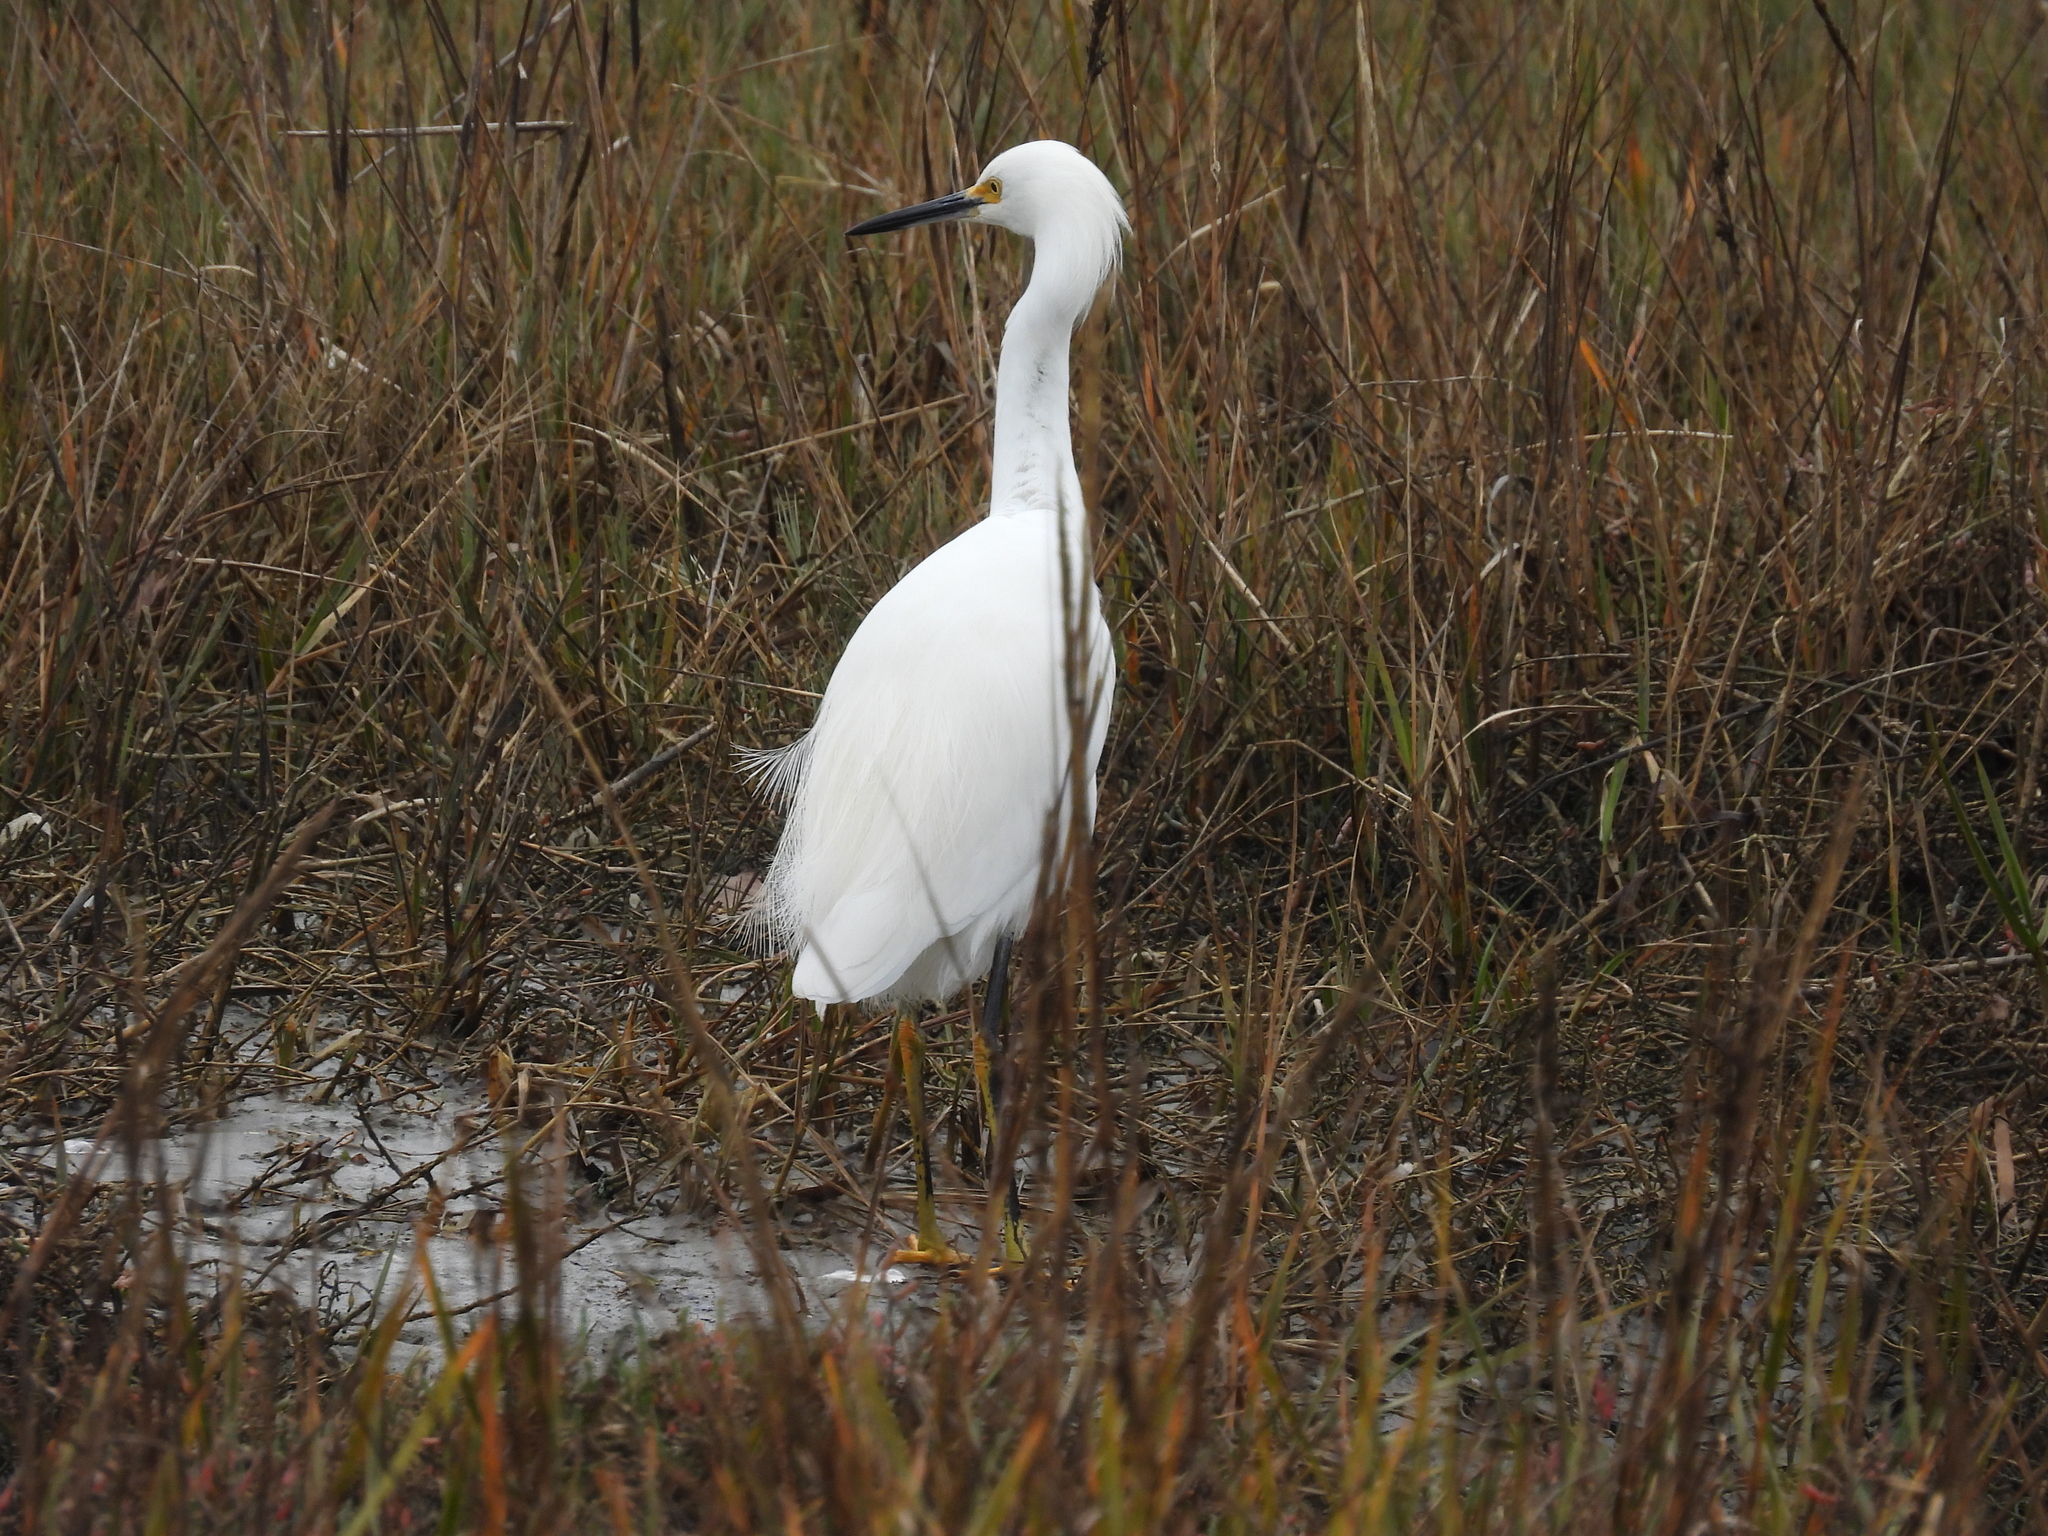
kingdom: Animalia
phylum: Chordata
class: Aves
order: Pelecaniformes
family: Ardeidae
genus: Egretta
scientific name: Egretta thula
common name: Snowy egret
